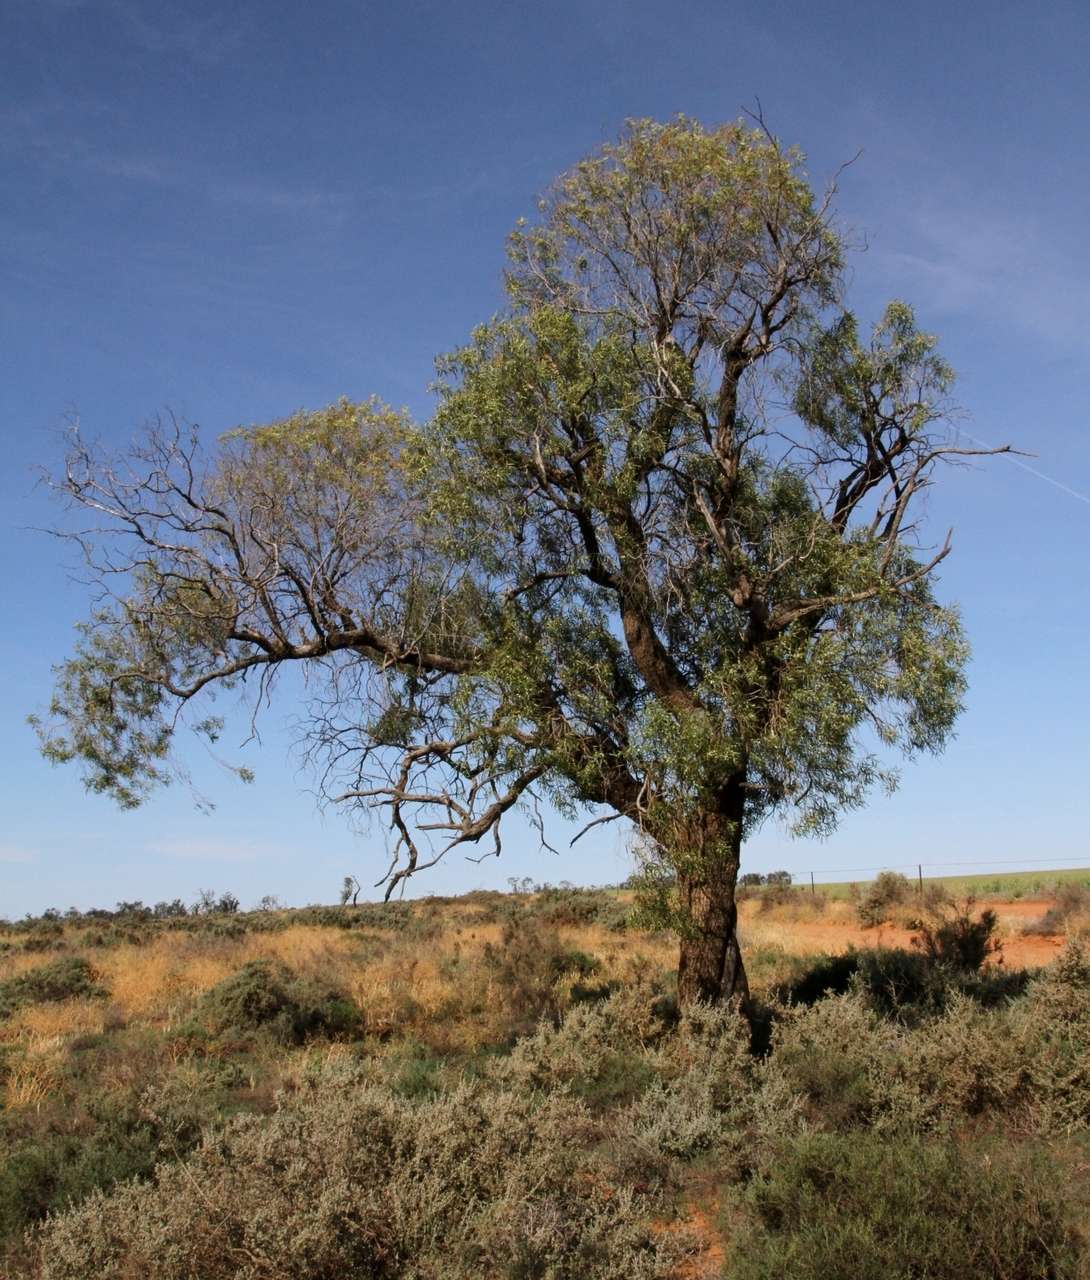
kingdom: Plantae
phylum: Tracheophyta
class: Magnoliopsida
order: Lamiales
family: Scrophulariaceae
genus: Myoporum
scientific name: Myoporum platycarpum
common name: Sugartree
